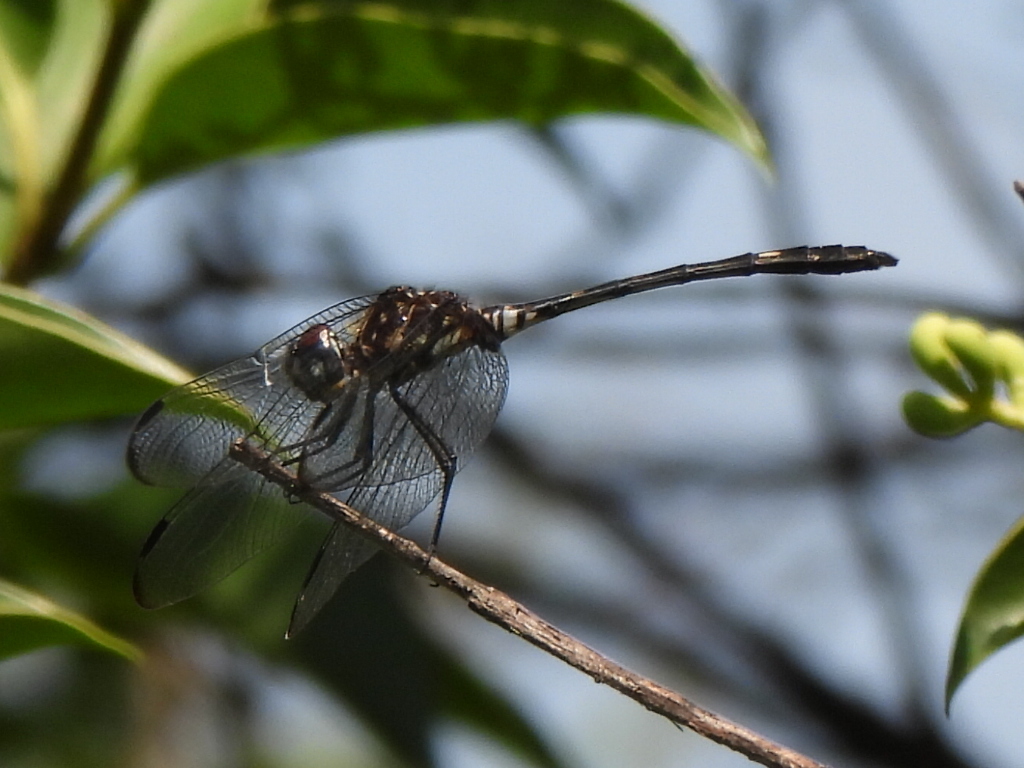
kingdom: Animalia
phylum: Arthropoda
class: Insecta
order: Odonata
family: Libellulidae
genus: Dythemis
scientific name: Dythemis velox
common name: Swift setwing
